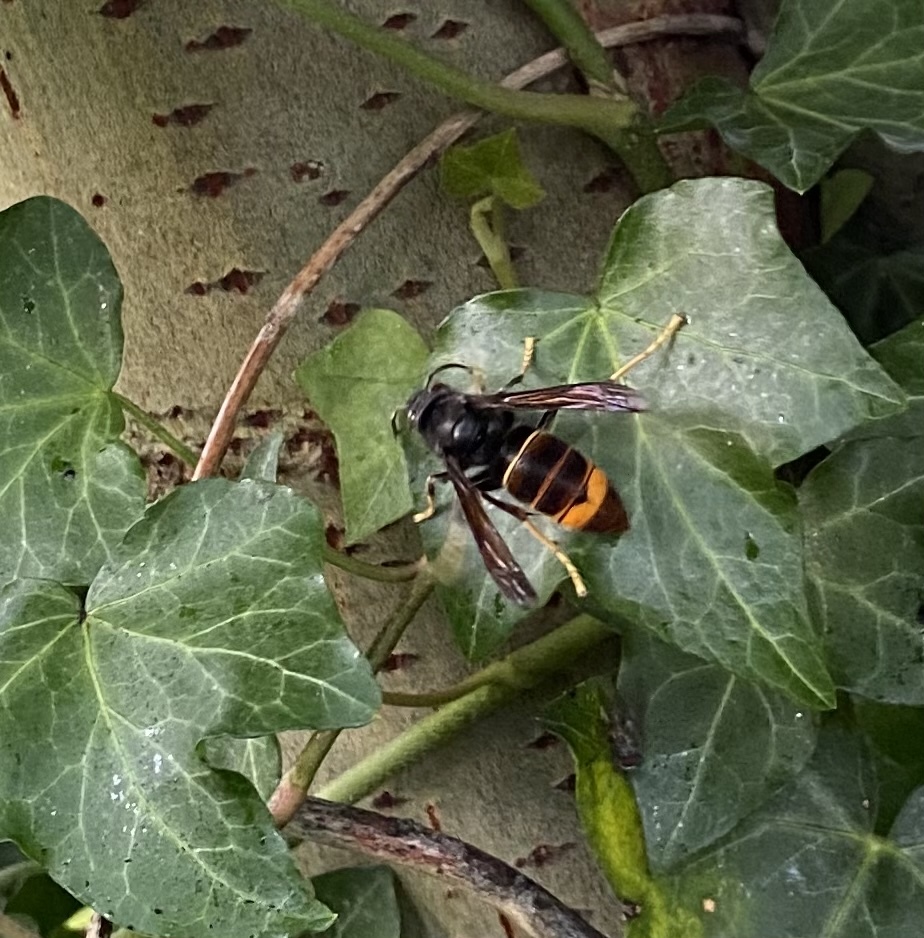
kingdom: Animalia
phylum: Arthropoda
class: Insecta
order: Hymenoptera
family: Vespidae
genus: Vespa
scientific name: Vespa velutina
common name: Asian hornet
